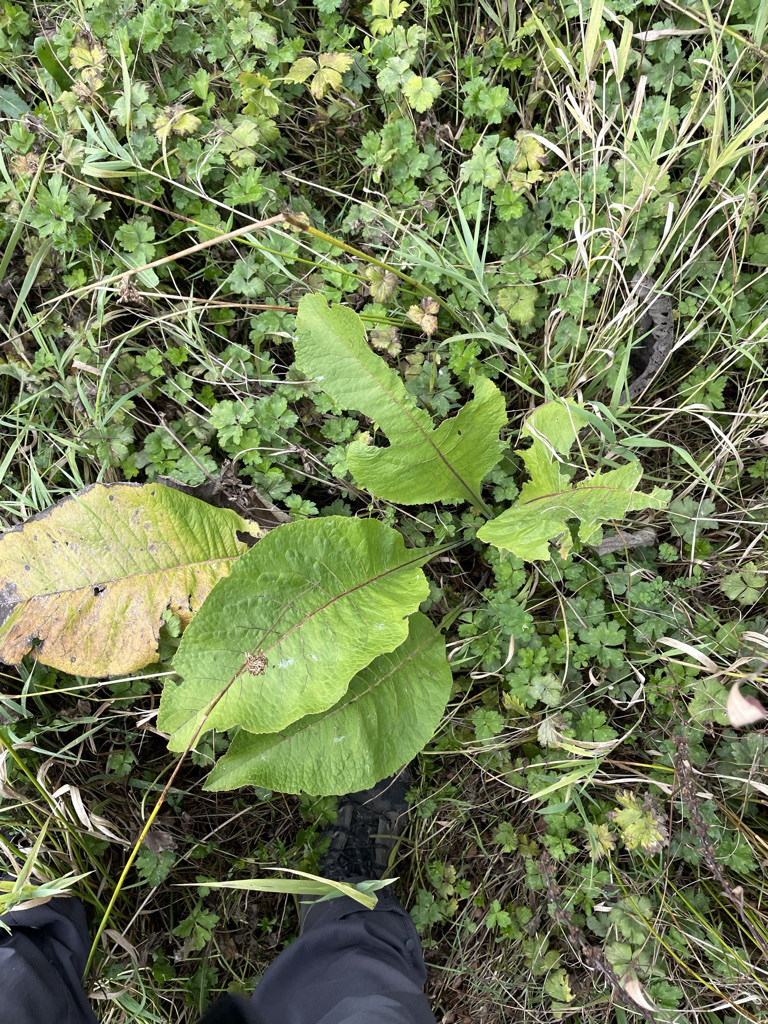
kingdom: Plantae
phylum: Tracheophyta
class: Magnoliopsida
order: Caryophyllales
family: Polygonaceae
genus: Rumex
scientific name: Rumex obtusifolius
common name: Bitter dock
